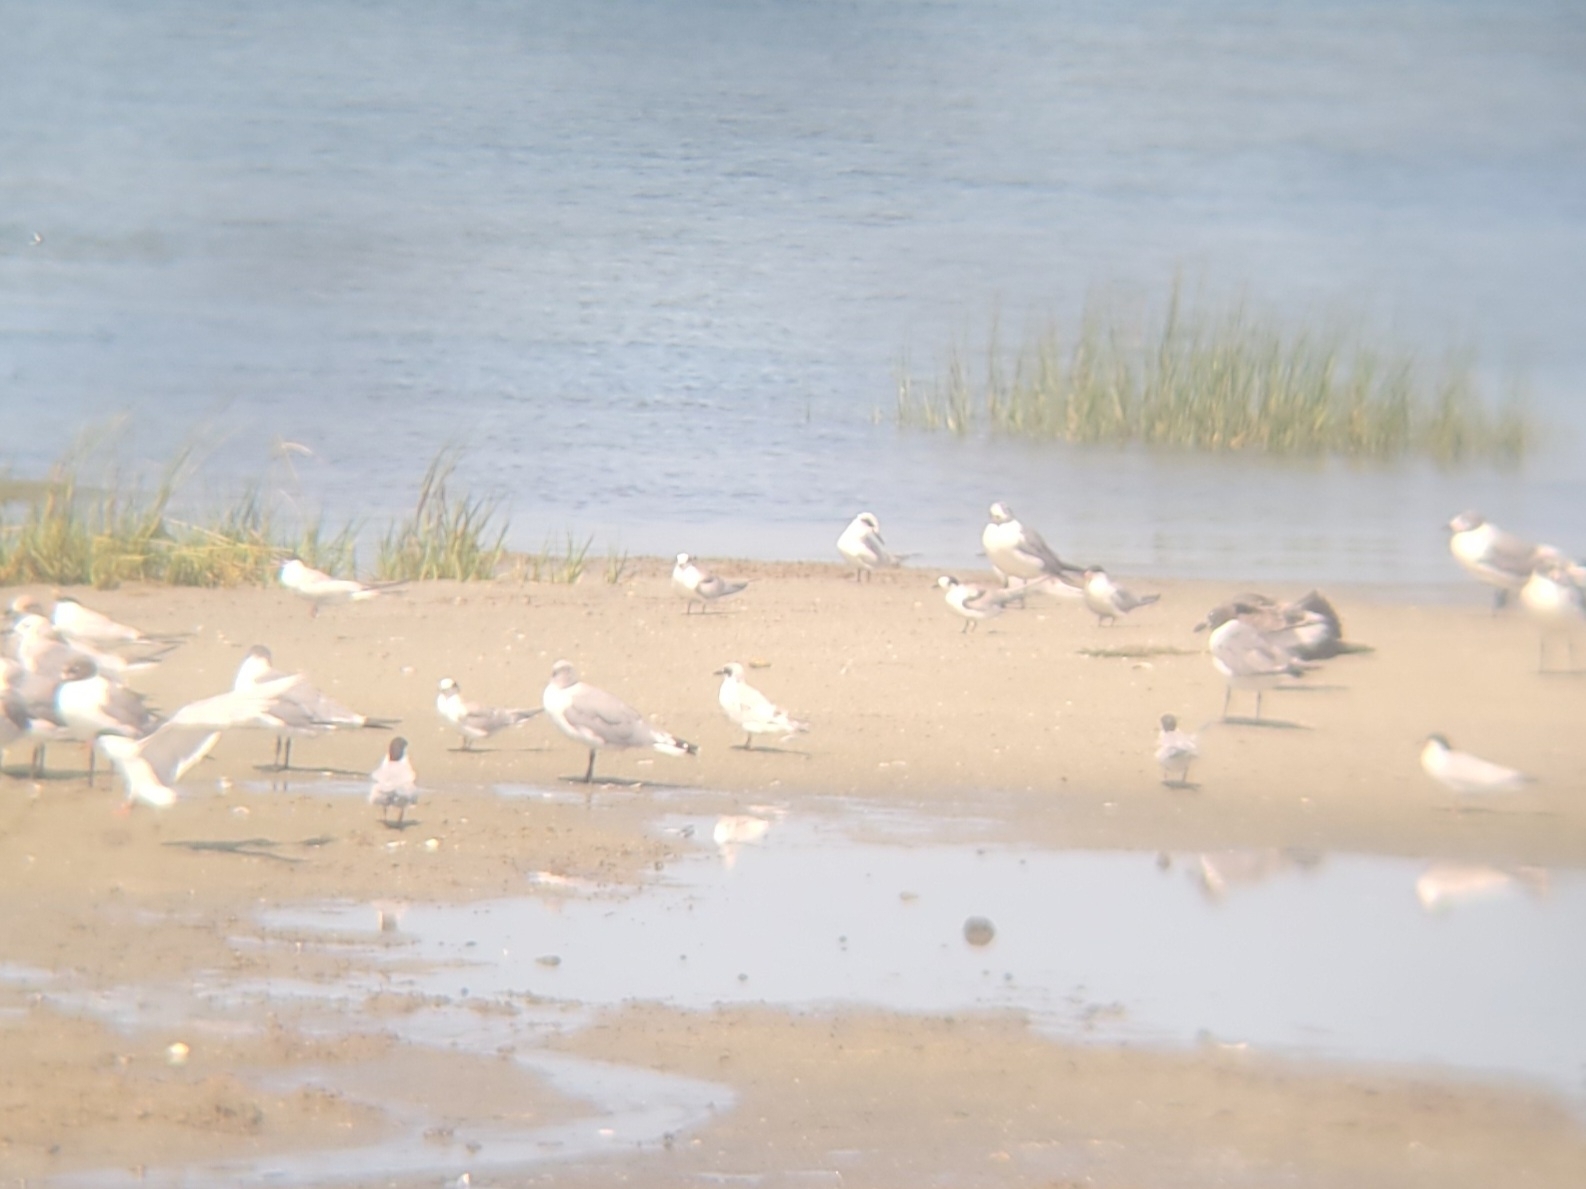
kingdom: Animalia
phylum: Chordata
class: Aves
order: Charadriiformes
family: Laridae
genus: Sterna
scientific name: Sterna forsteri
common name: Forster's tern
